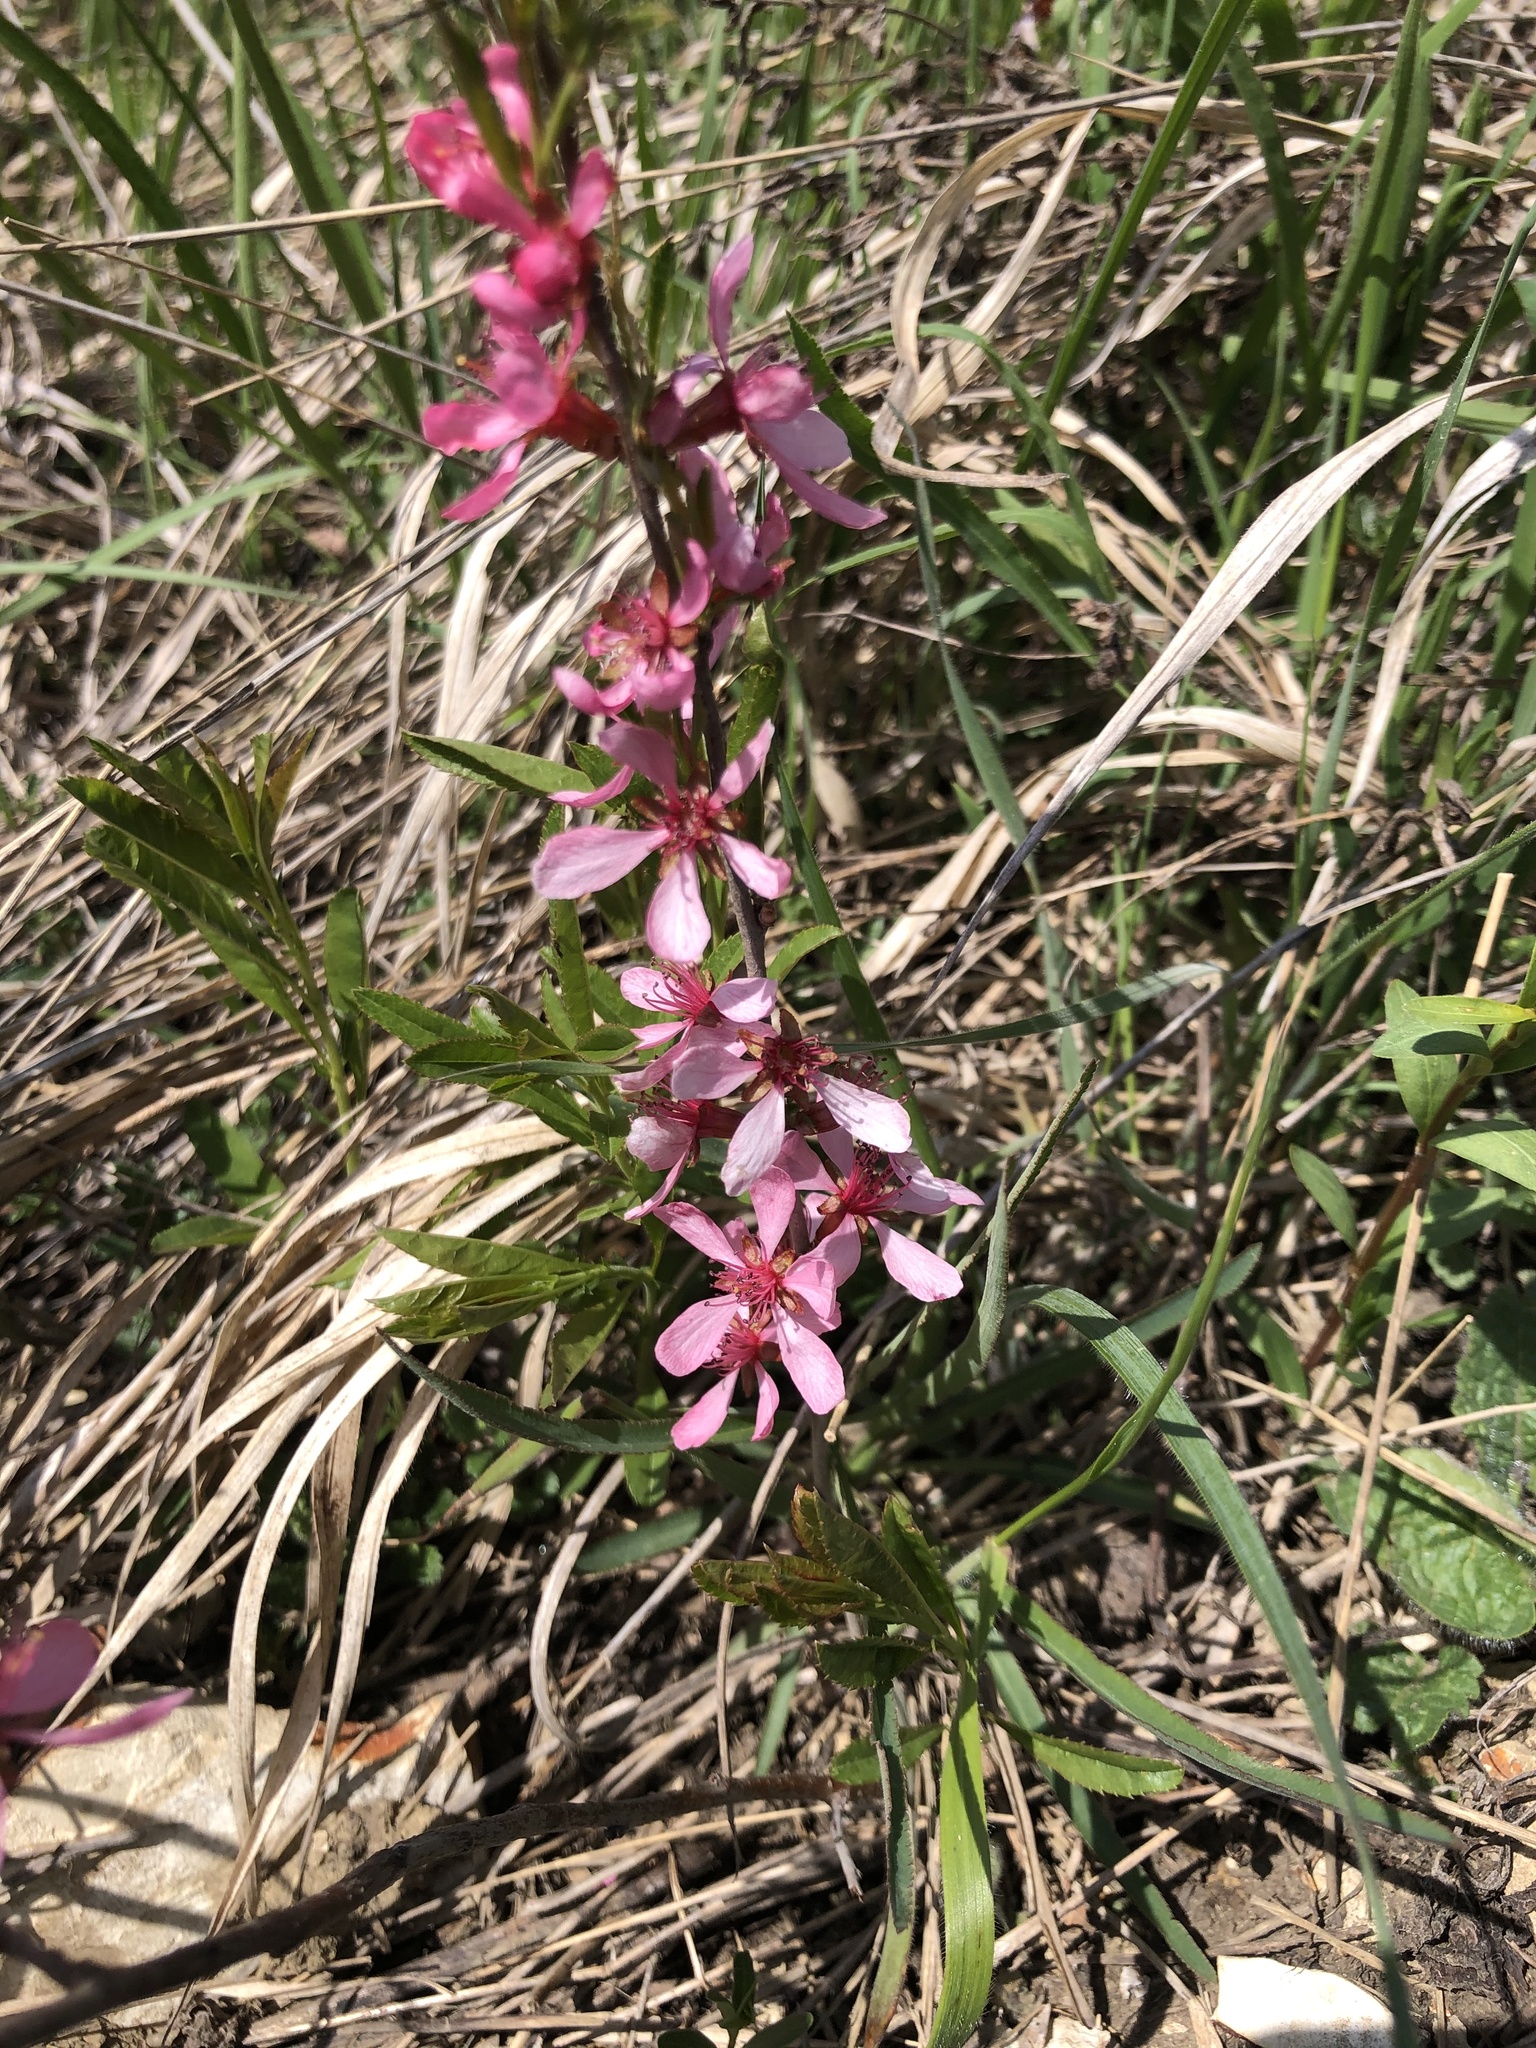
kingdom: Plantae
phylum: Tracheophyta
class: Magnoliopsida
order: Rosales
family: Rosaceae
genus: Prunus
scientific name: Prunus tenella
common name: Dwarf russian almond
